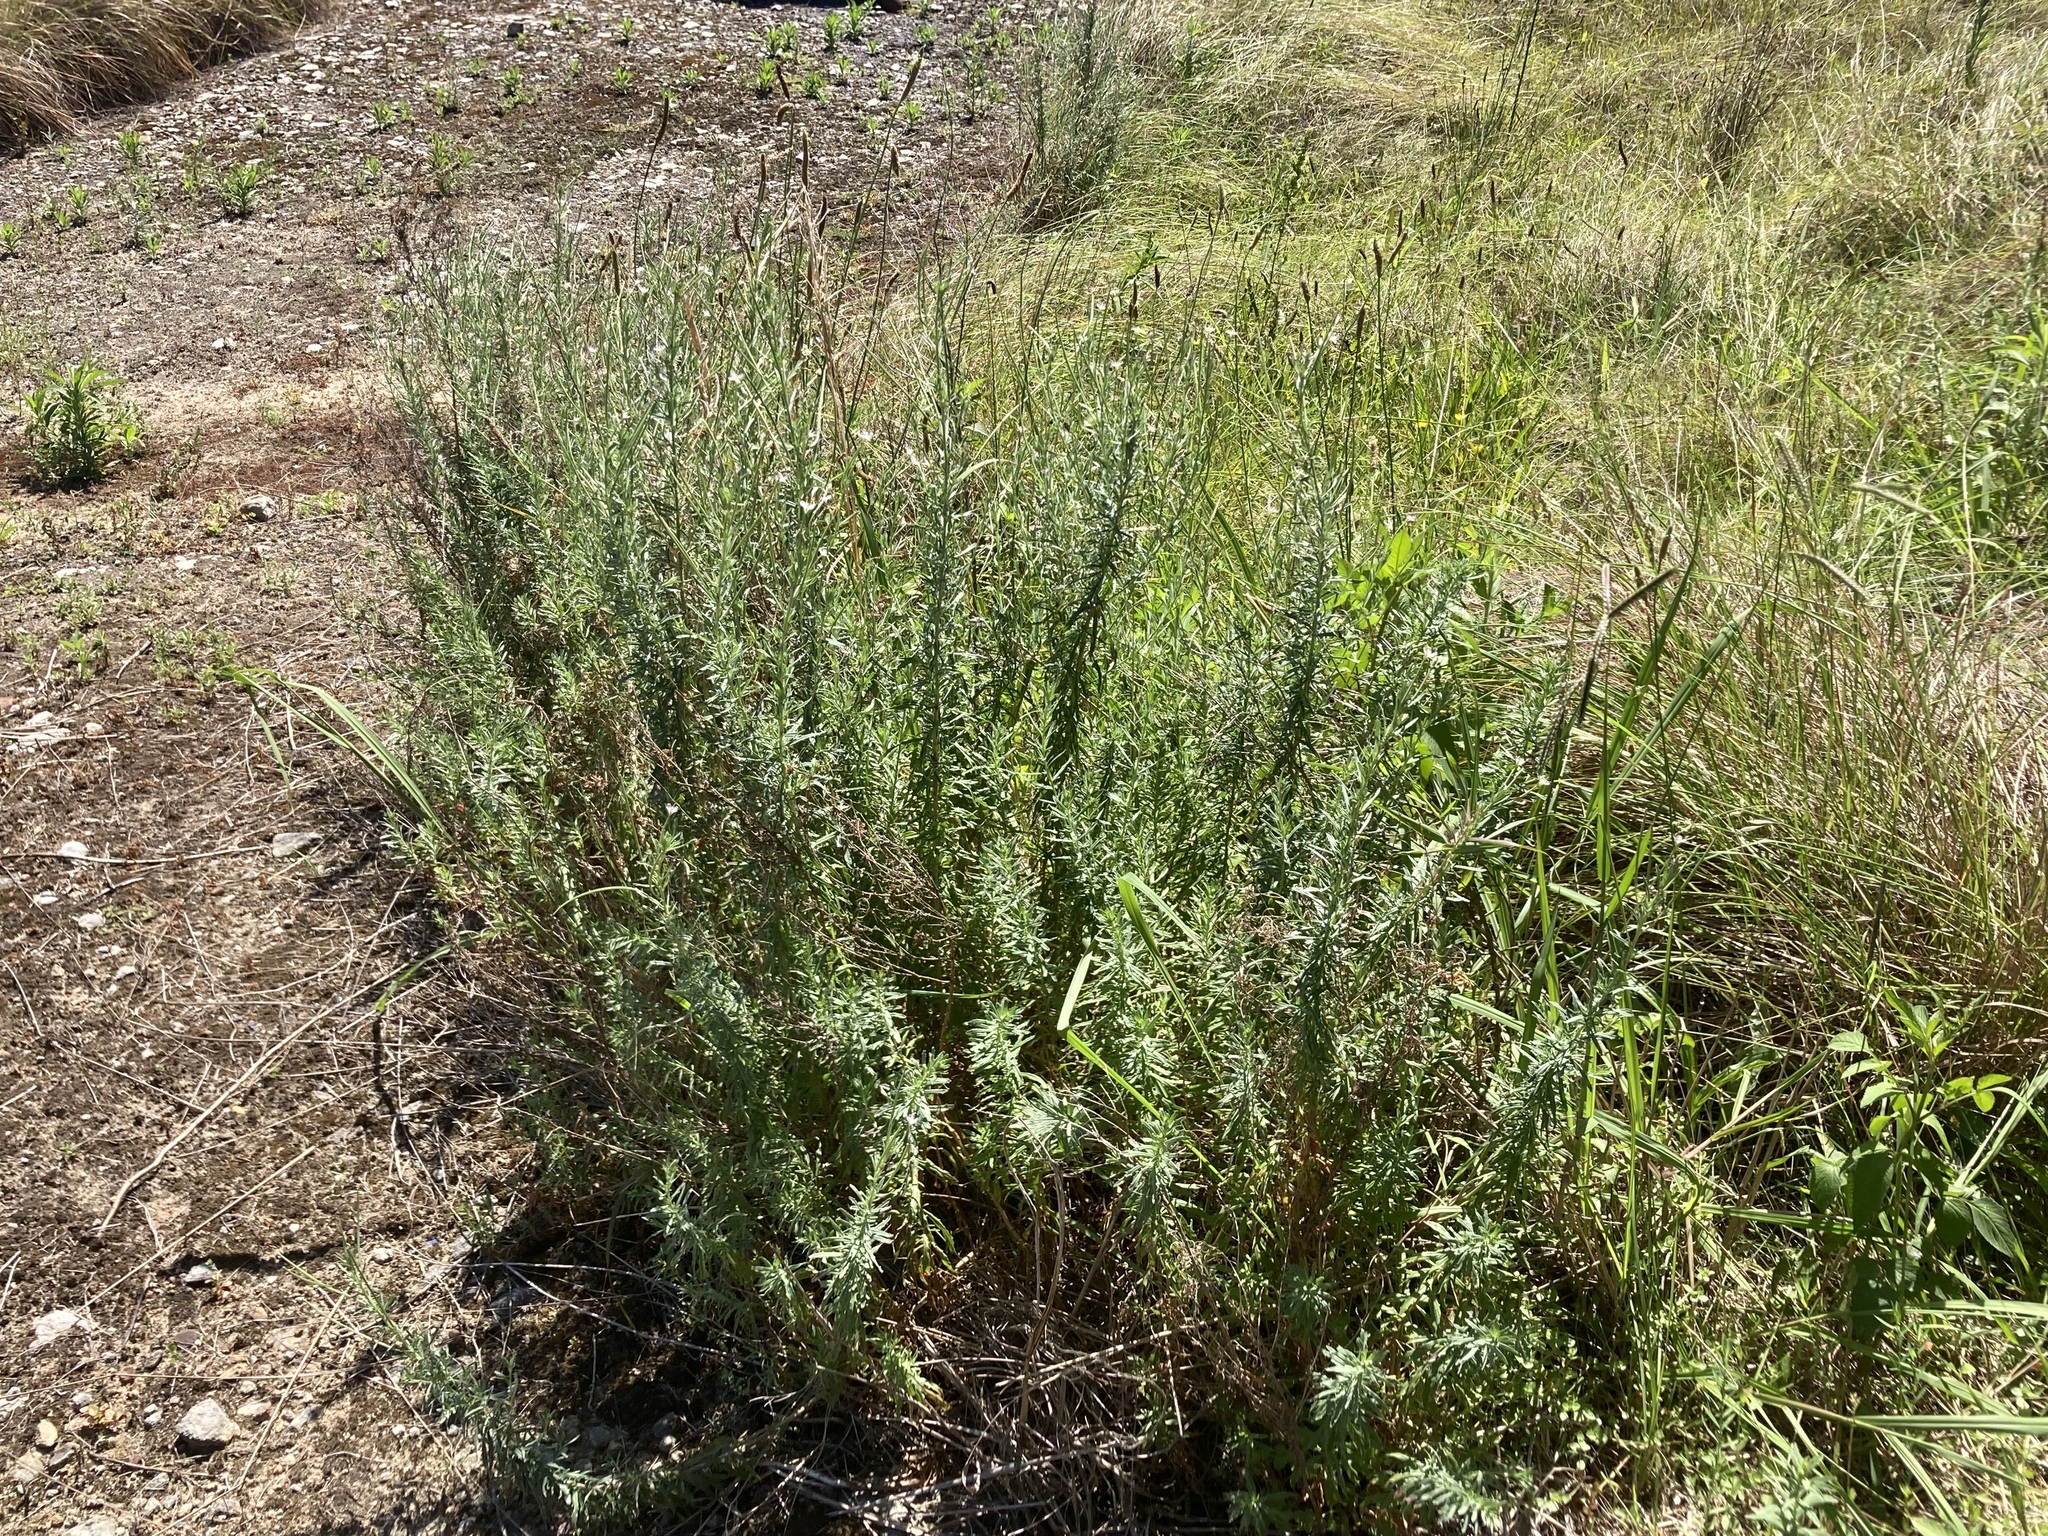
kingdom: Plantae
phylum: Tracheophyta
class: Magnoliopsida
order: Myrtales
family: Onagraceae
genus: Epilobium
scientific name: Epilobium billardierianum
